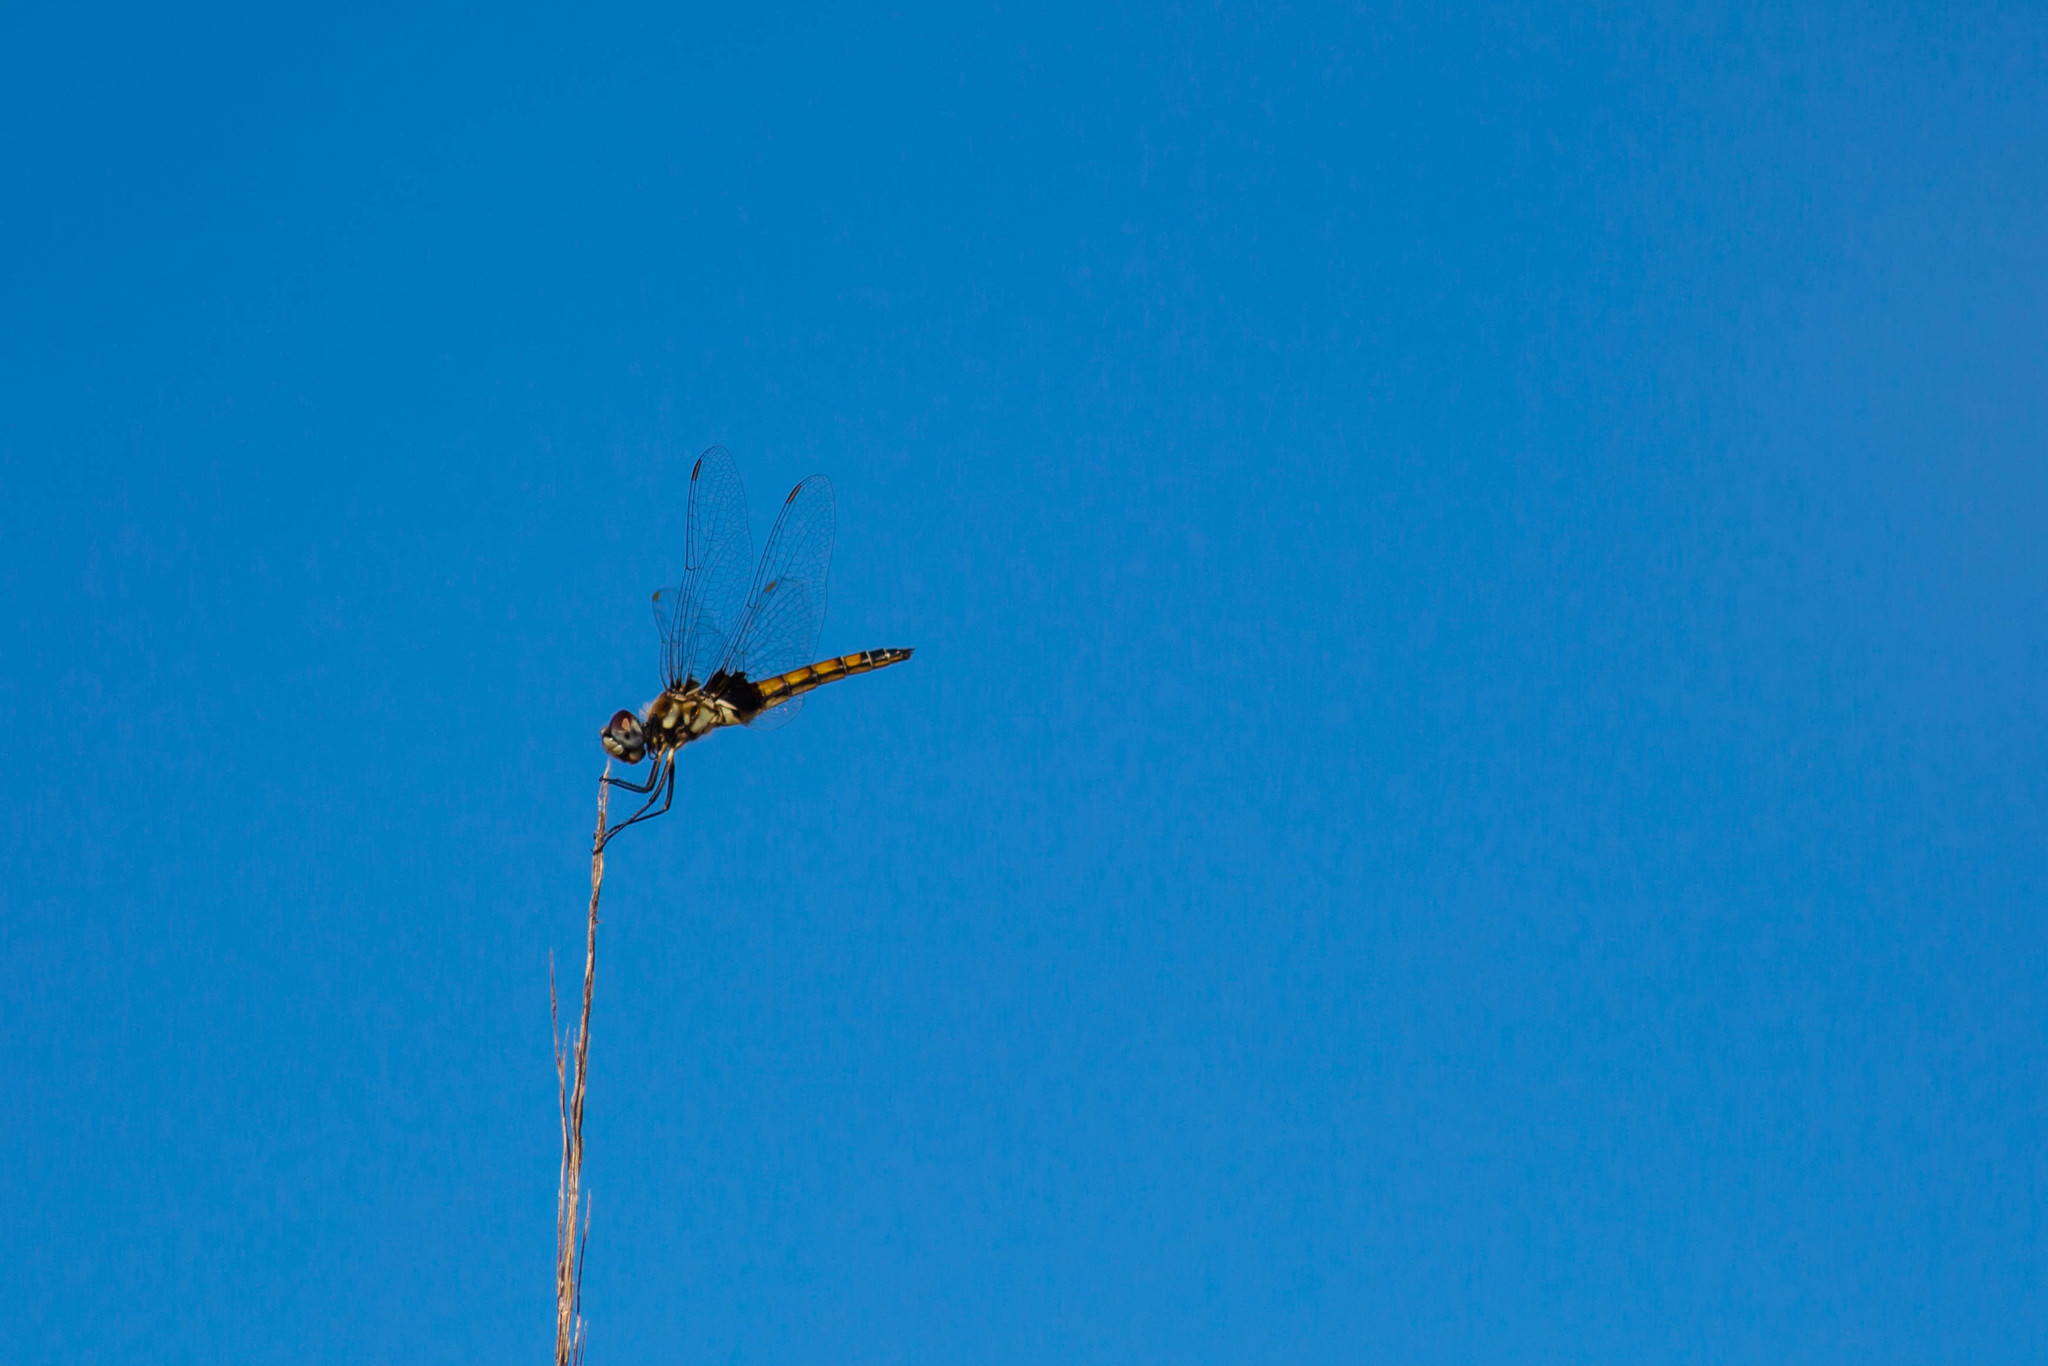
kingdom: Animalia
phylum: Arthropoda
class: Insecta
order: Odonata
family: Libellulidae
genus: Macrodiplax
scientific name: Macrodiplax balteata
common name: Marl pennant
